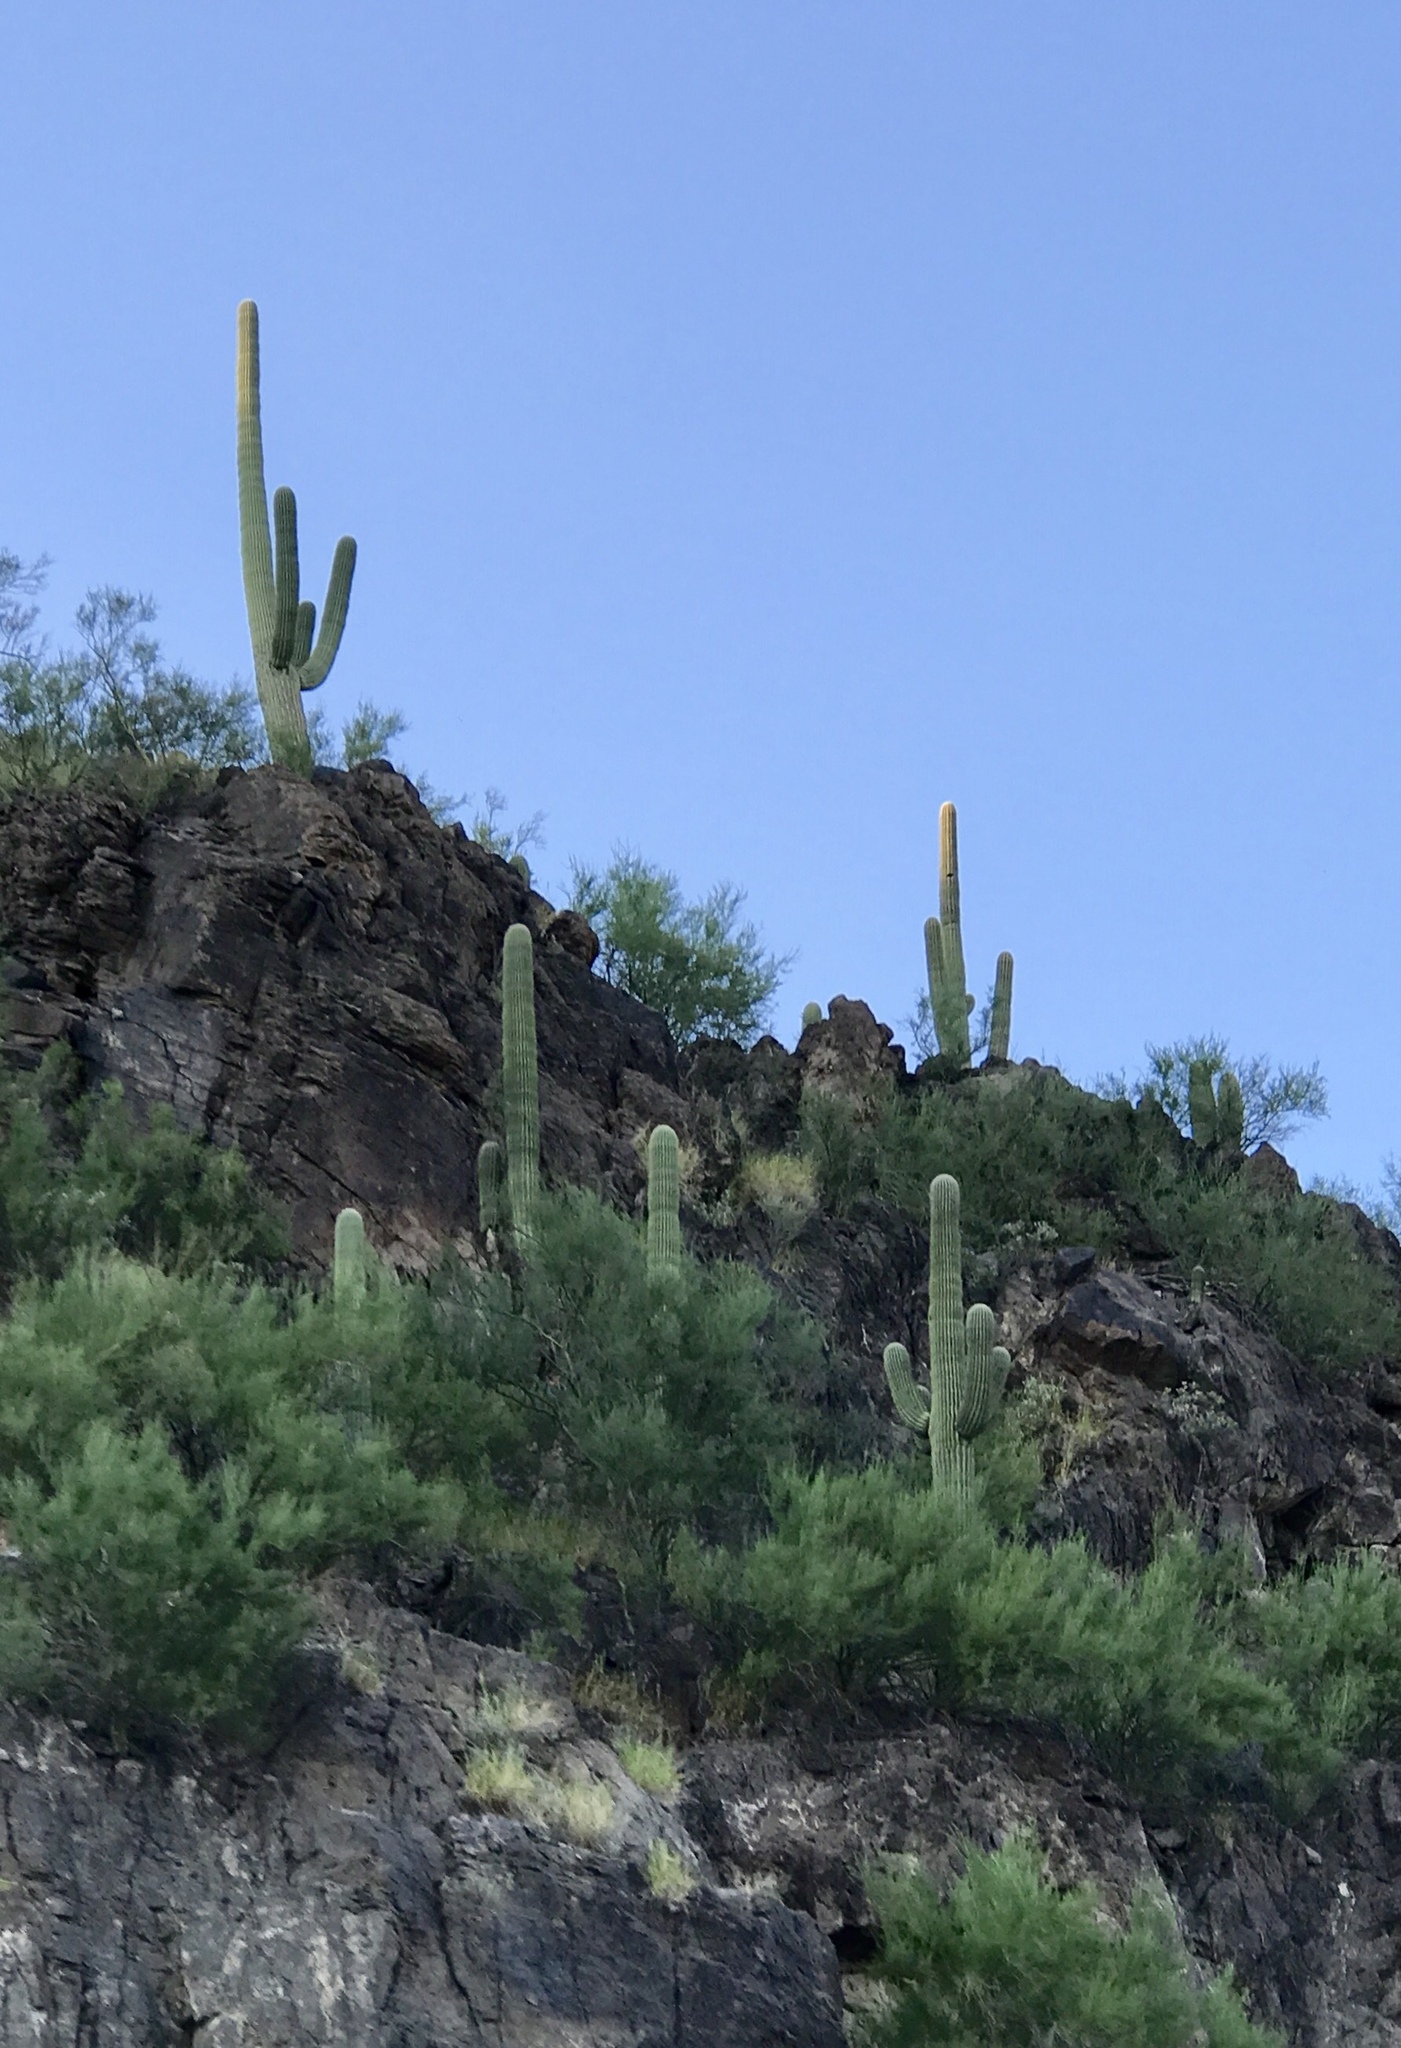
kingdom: Plantae
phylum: Tracheophyta
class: Magnoliopsida
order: Caryophyllales
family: Cactaceae
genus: Carnegiea
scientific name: Carnegiea gigantea
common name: Saguaro
